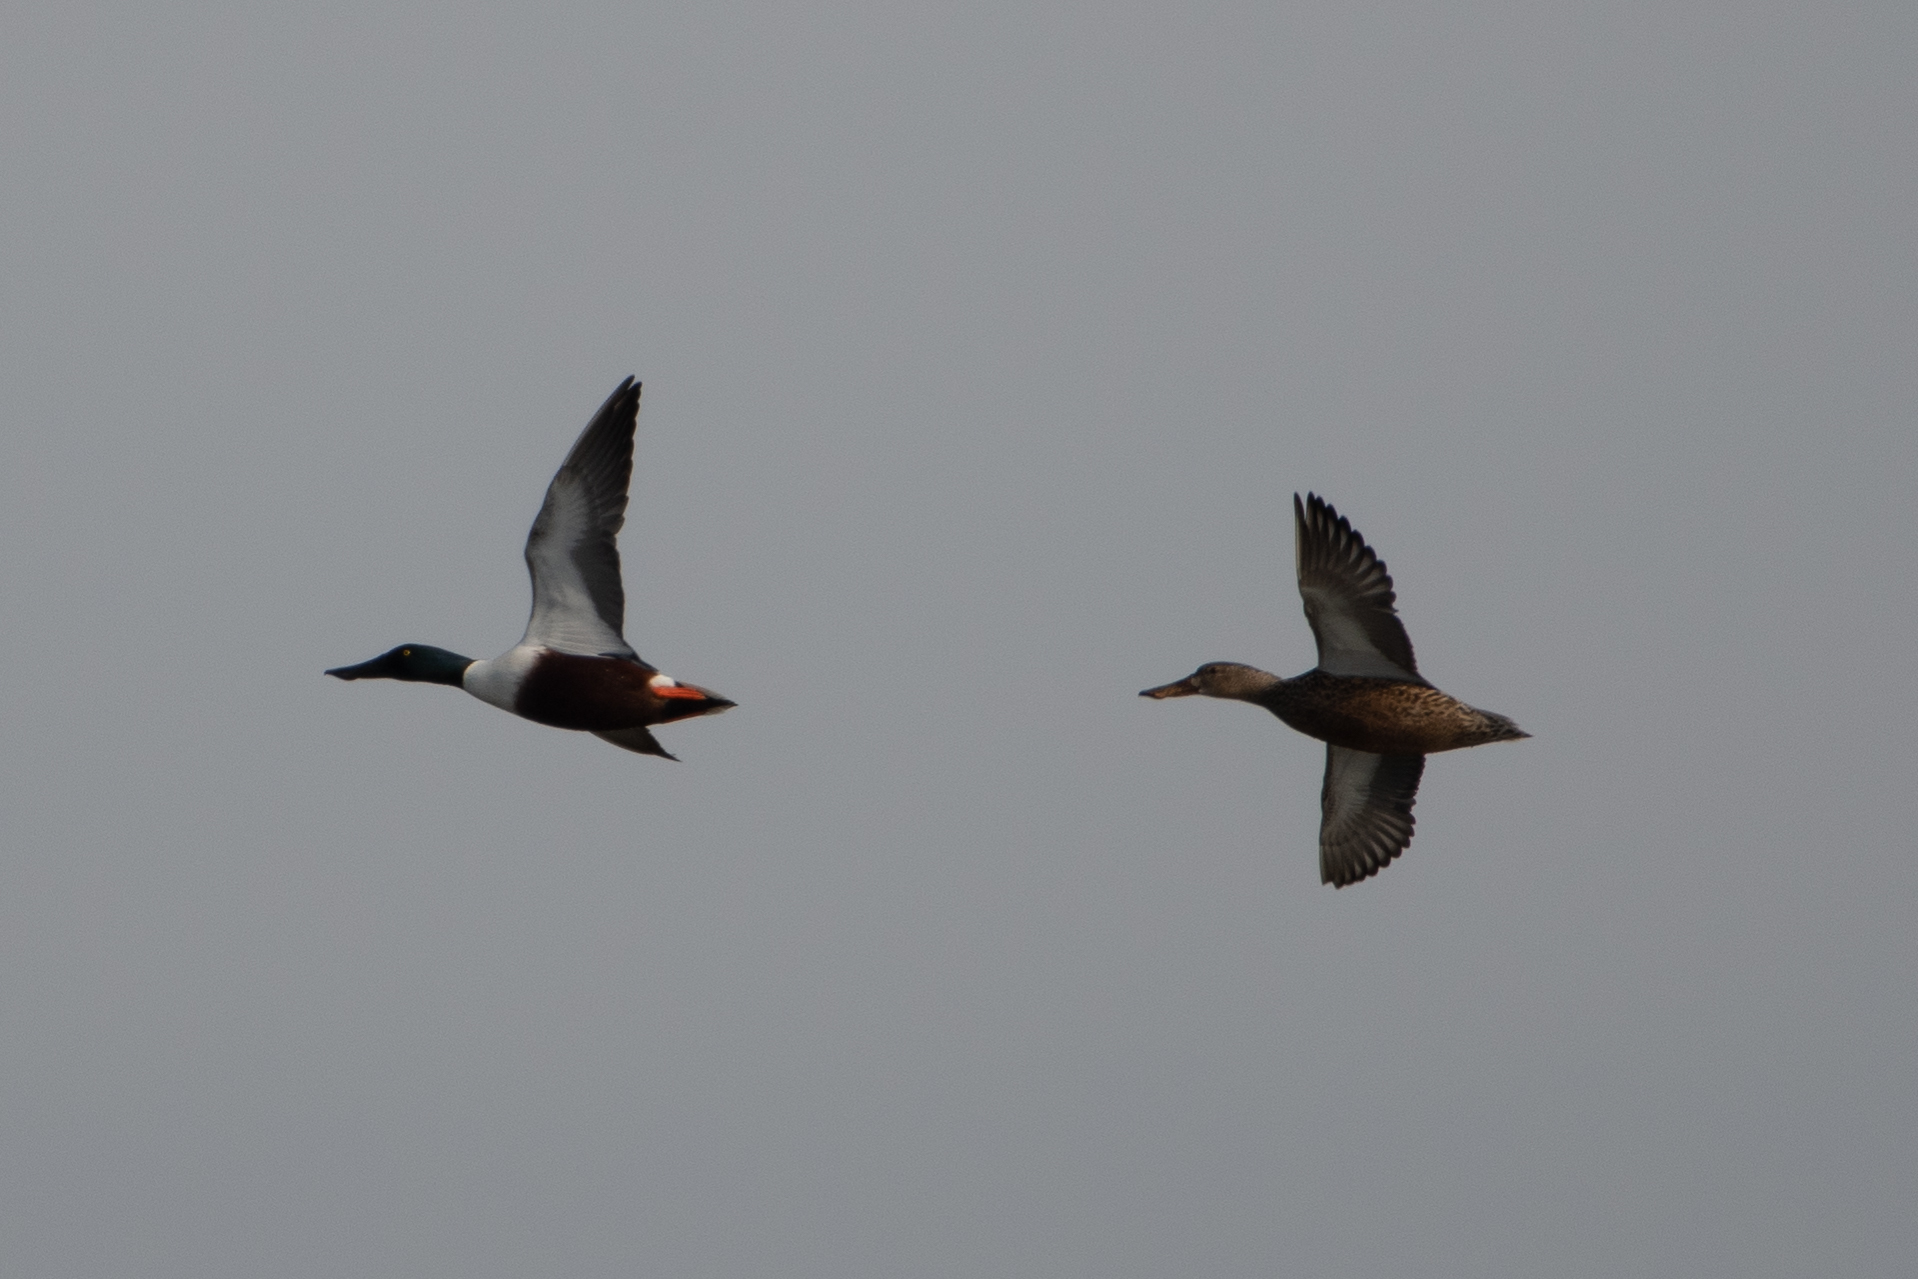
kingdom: Animalia
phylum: Chordata
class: Aves
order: Anseriformes
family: Anatidae
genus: Spatula
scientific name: Spatula clypeata
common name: Northern shoveler
